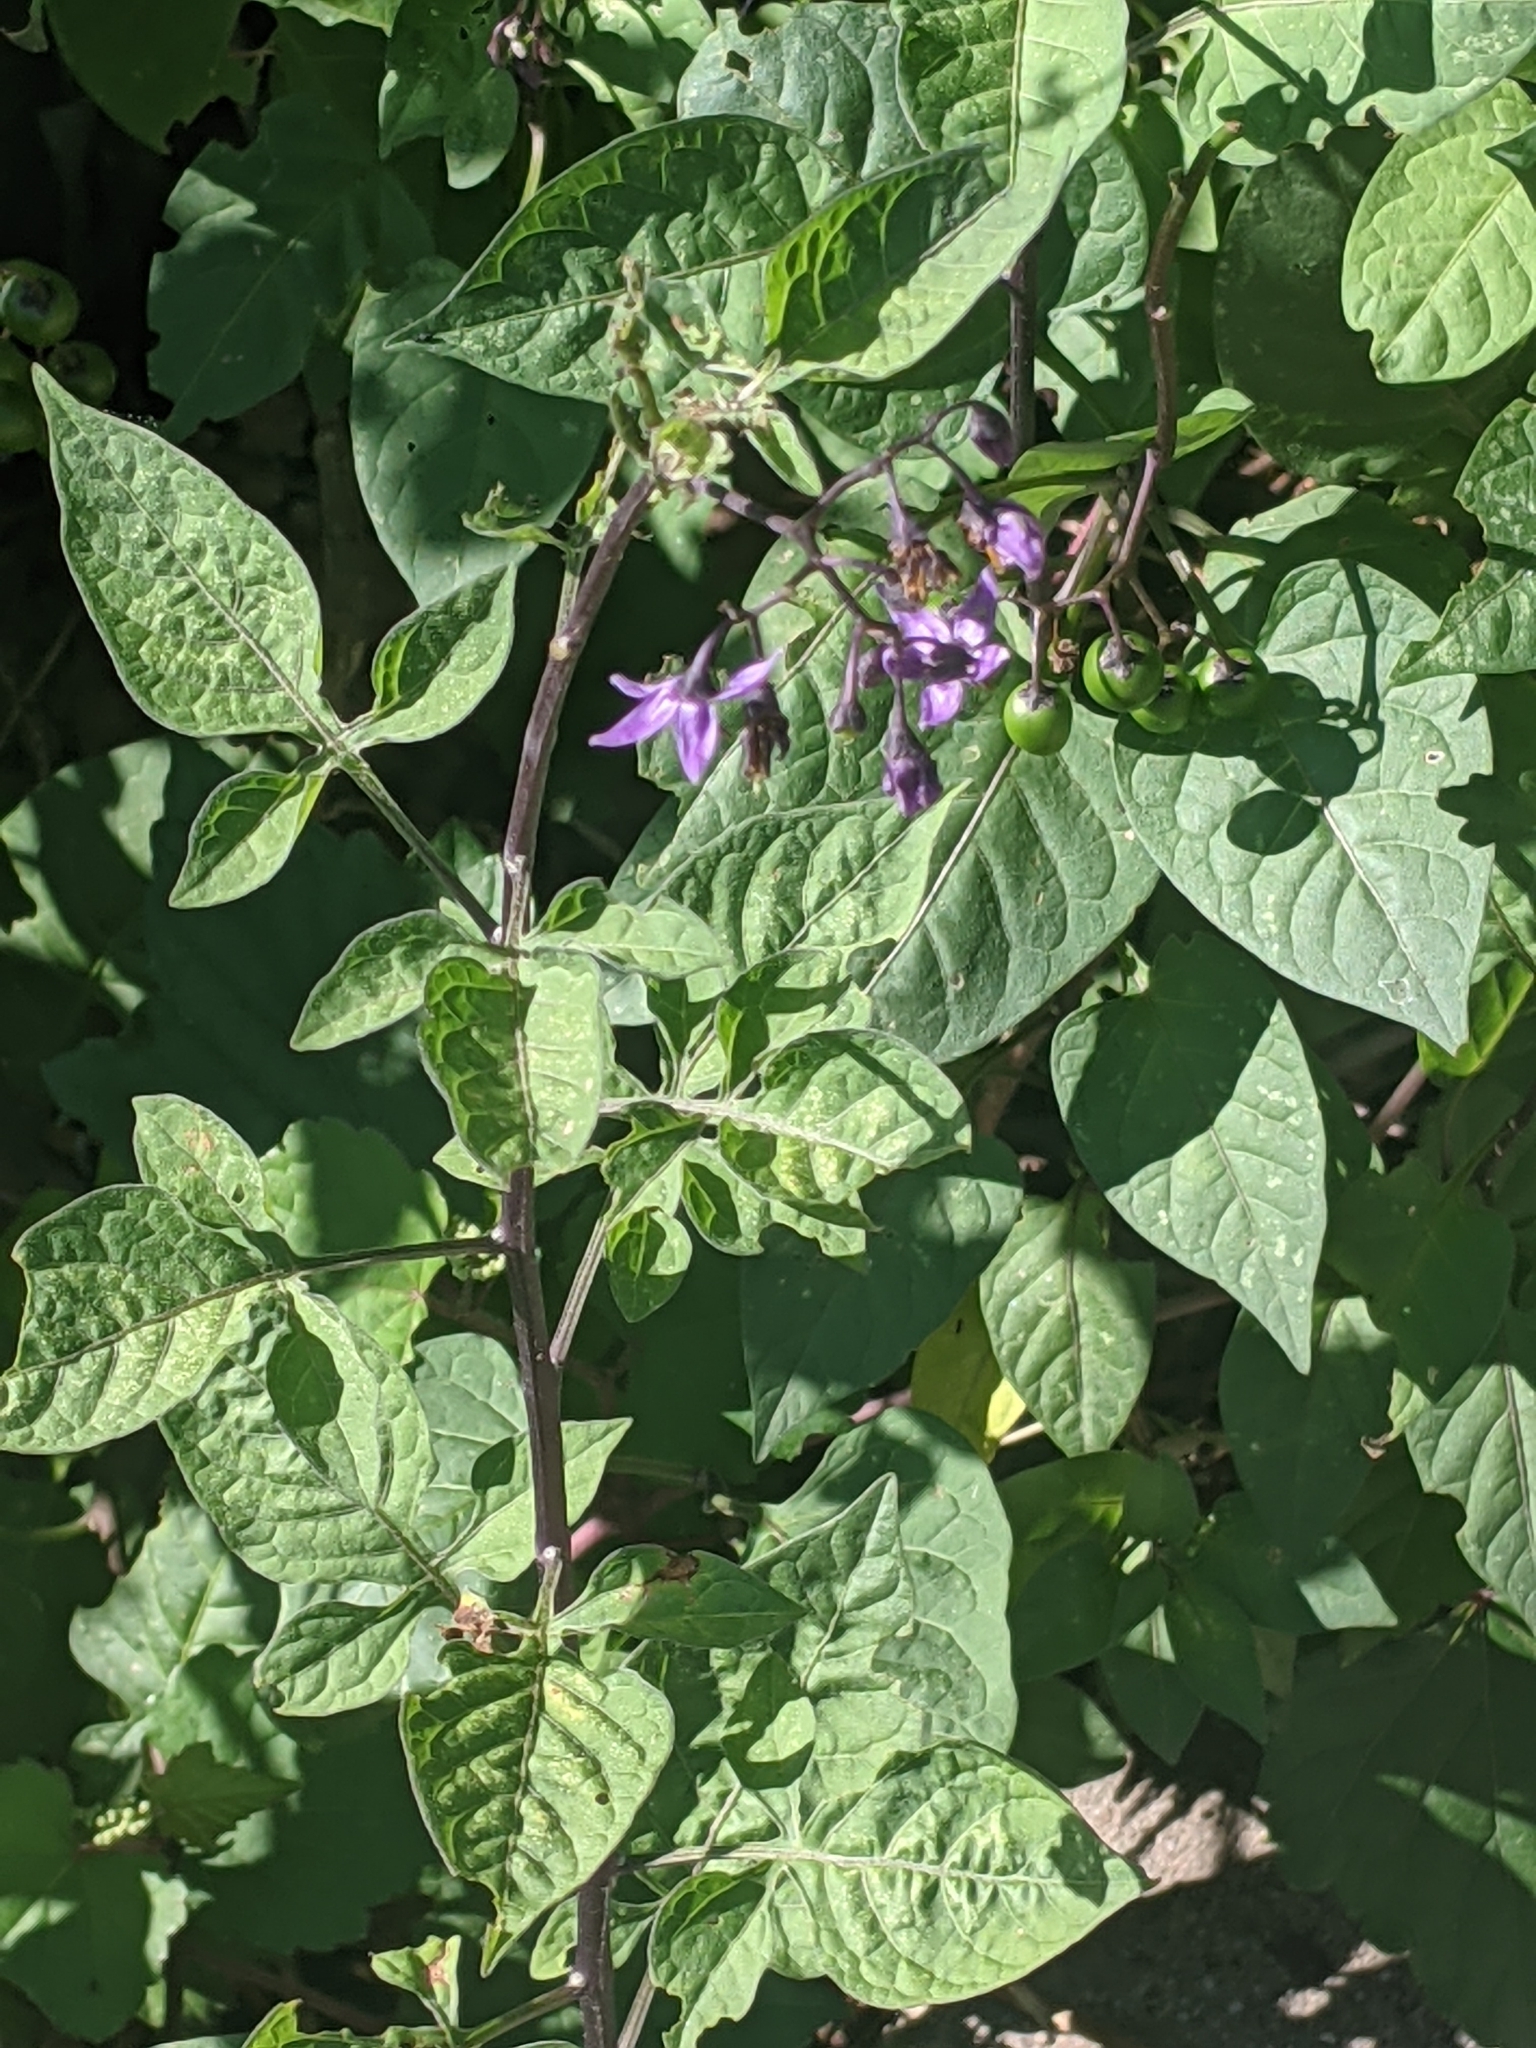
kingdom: Plantae
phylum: Tracheophyta
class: Magnoliopsida
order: Solanales
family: Solanaceae
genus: Solanum
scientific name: Solanum dulcamara
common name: Climbing nightshade
